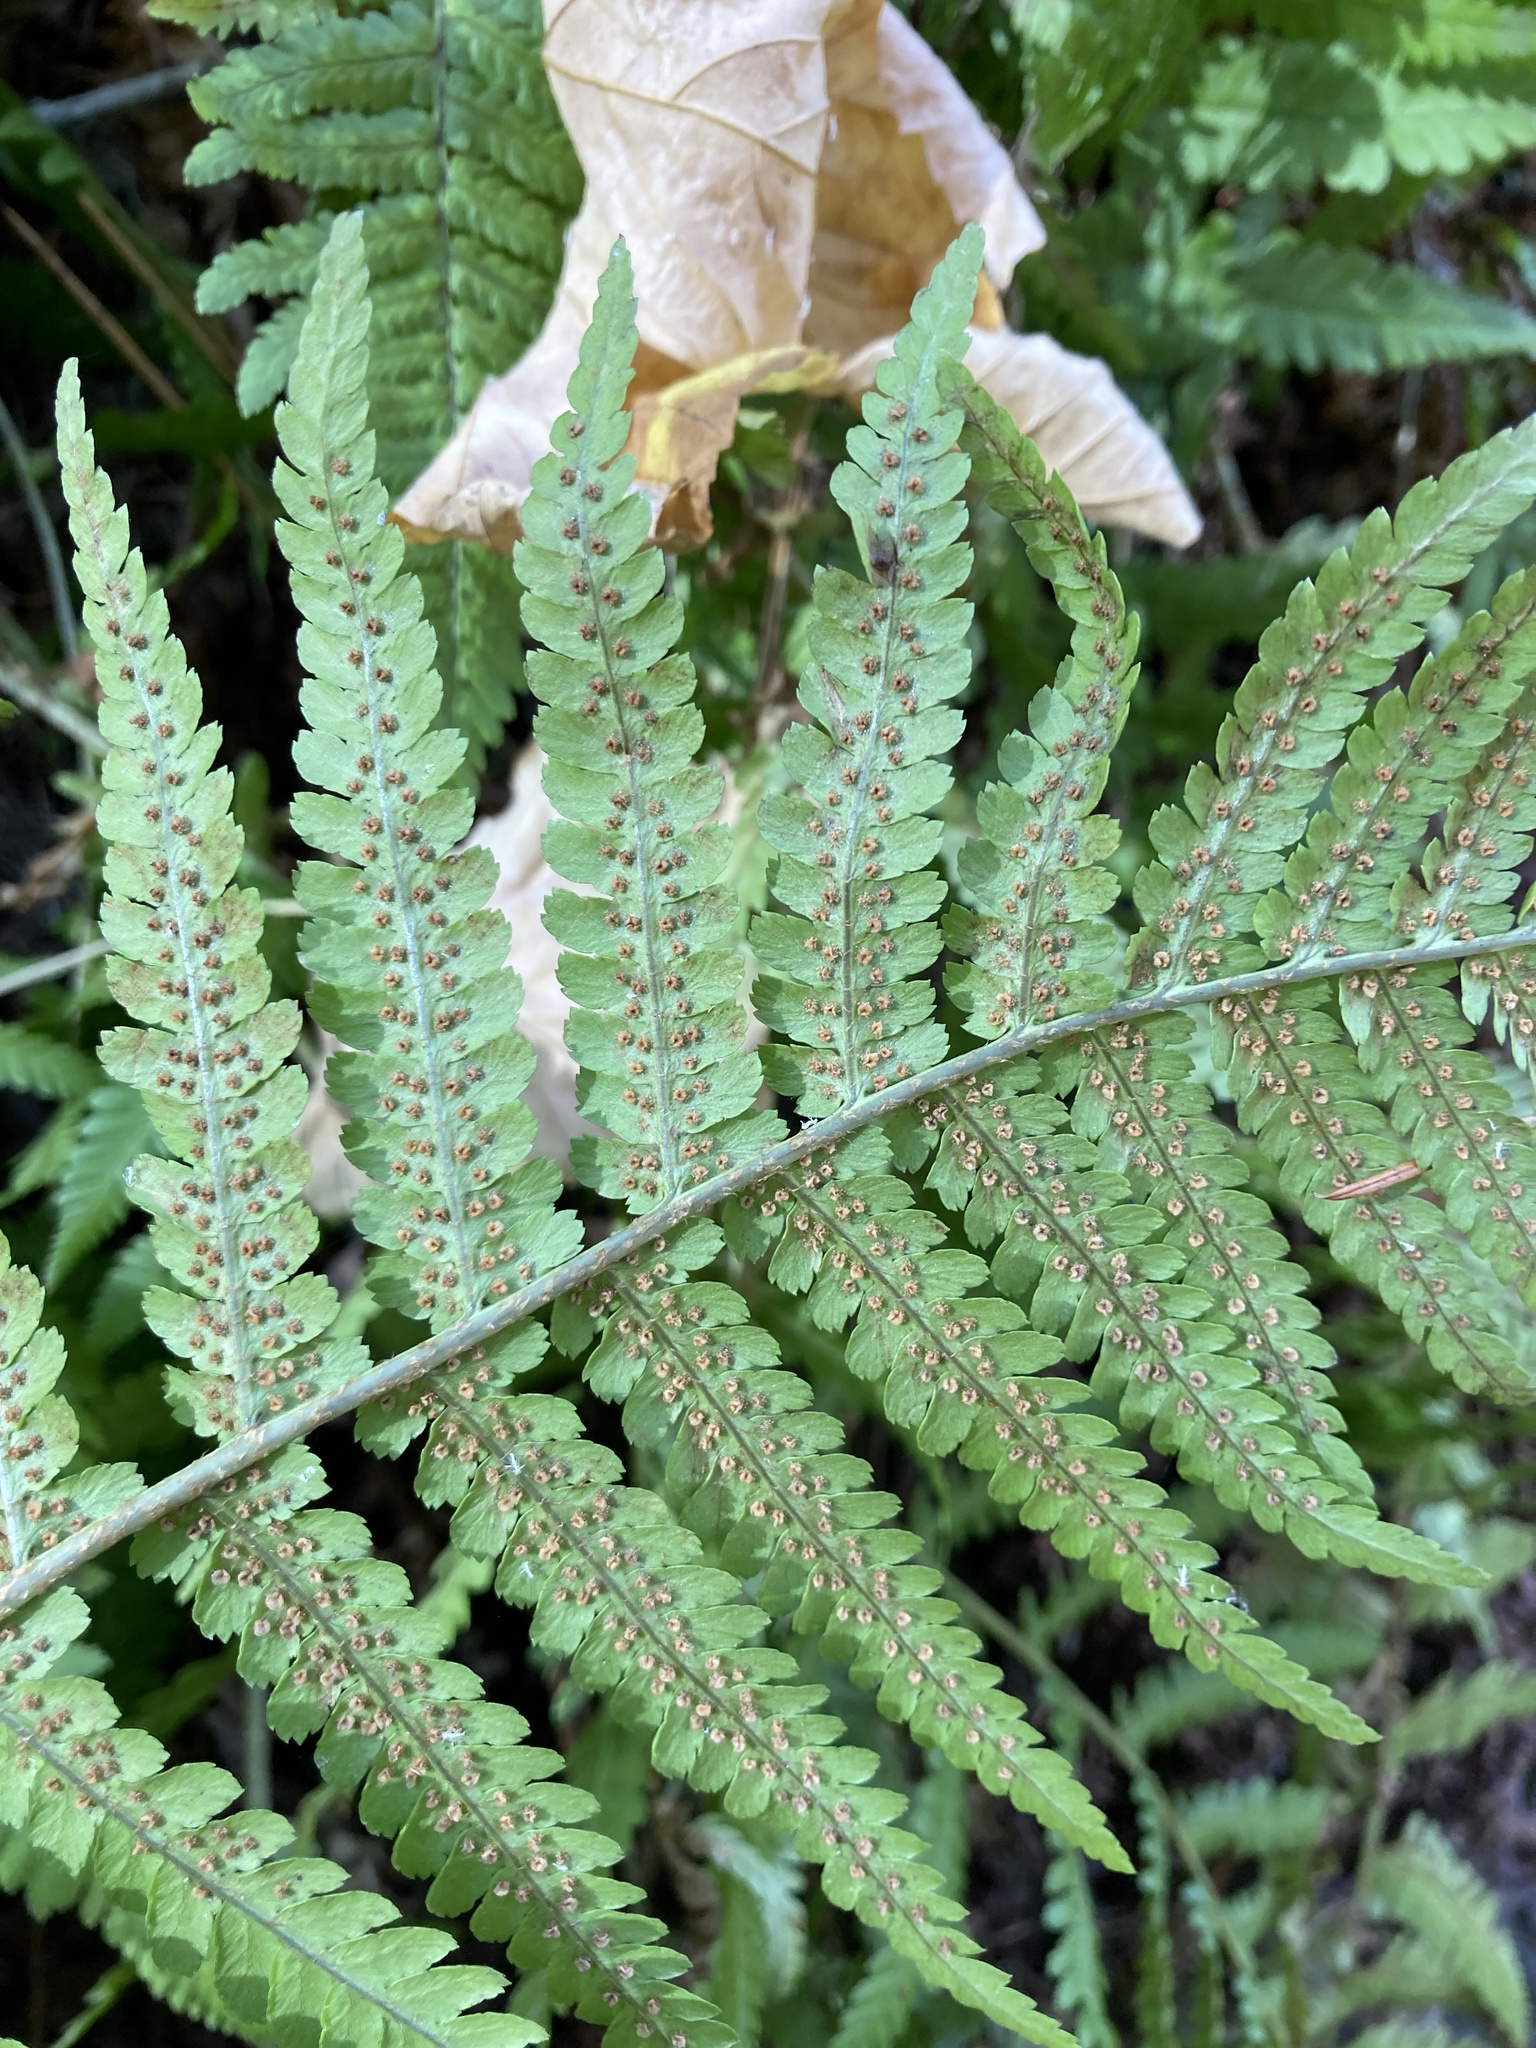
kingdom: Plantae
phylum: Tracheophyta
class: Polypodiopsida
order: Polypodiales
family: Dryopteridaceae
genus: Dryopteris
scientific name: Dryopteris filix-mas
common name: Male fern
